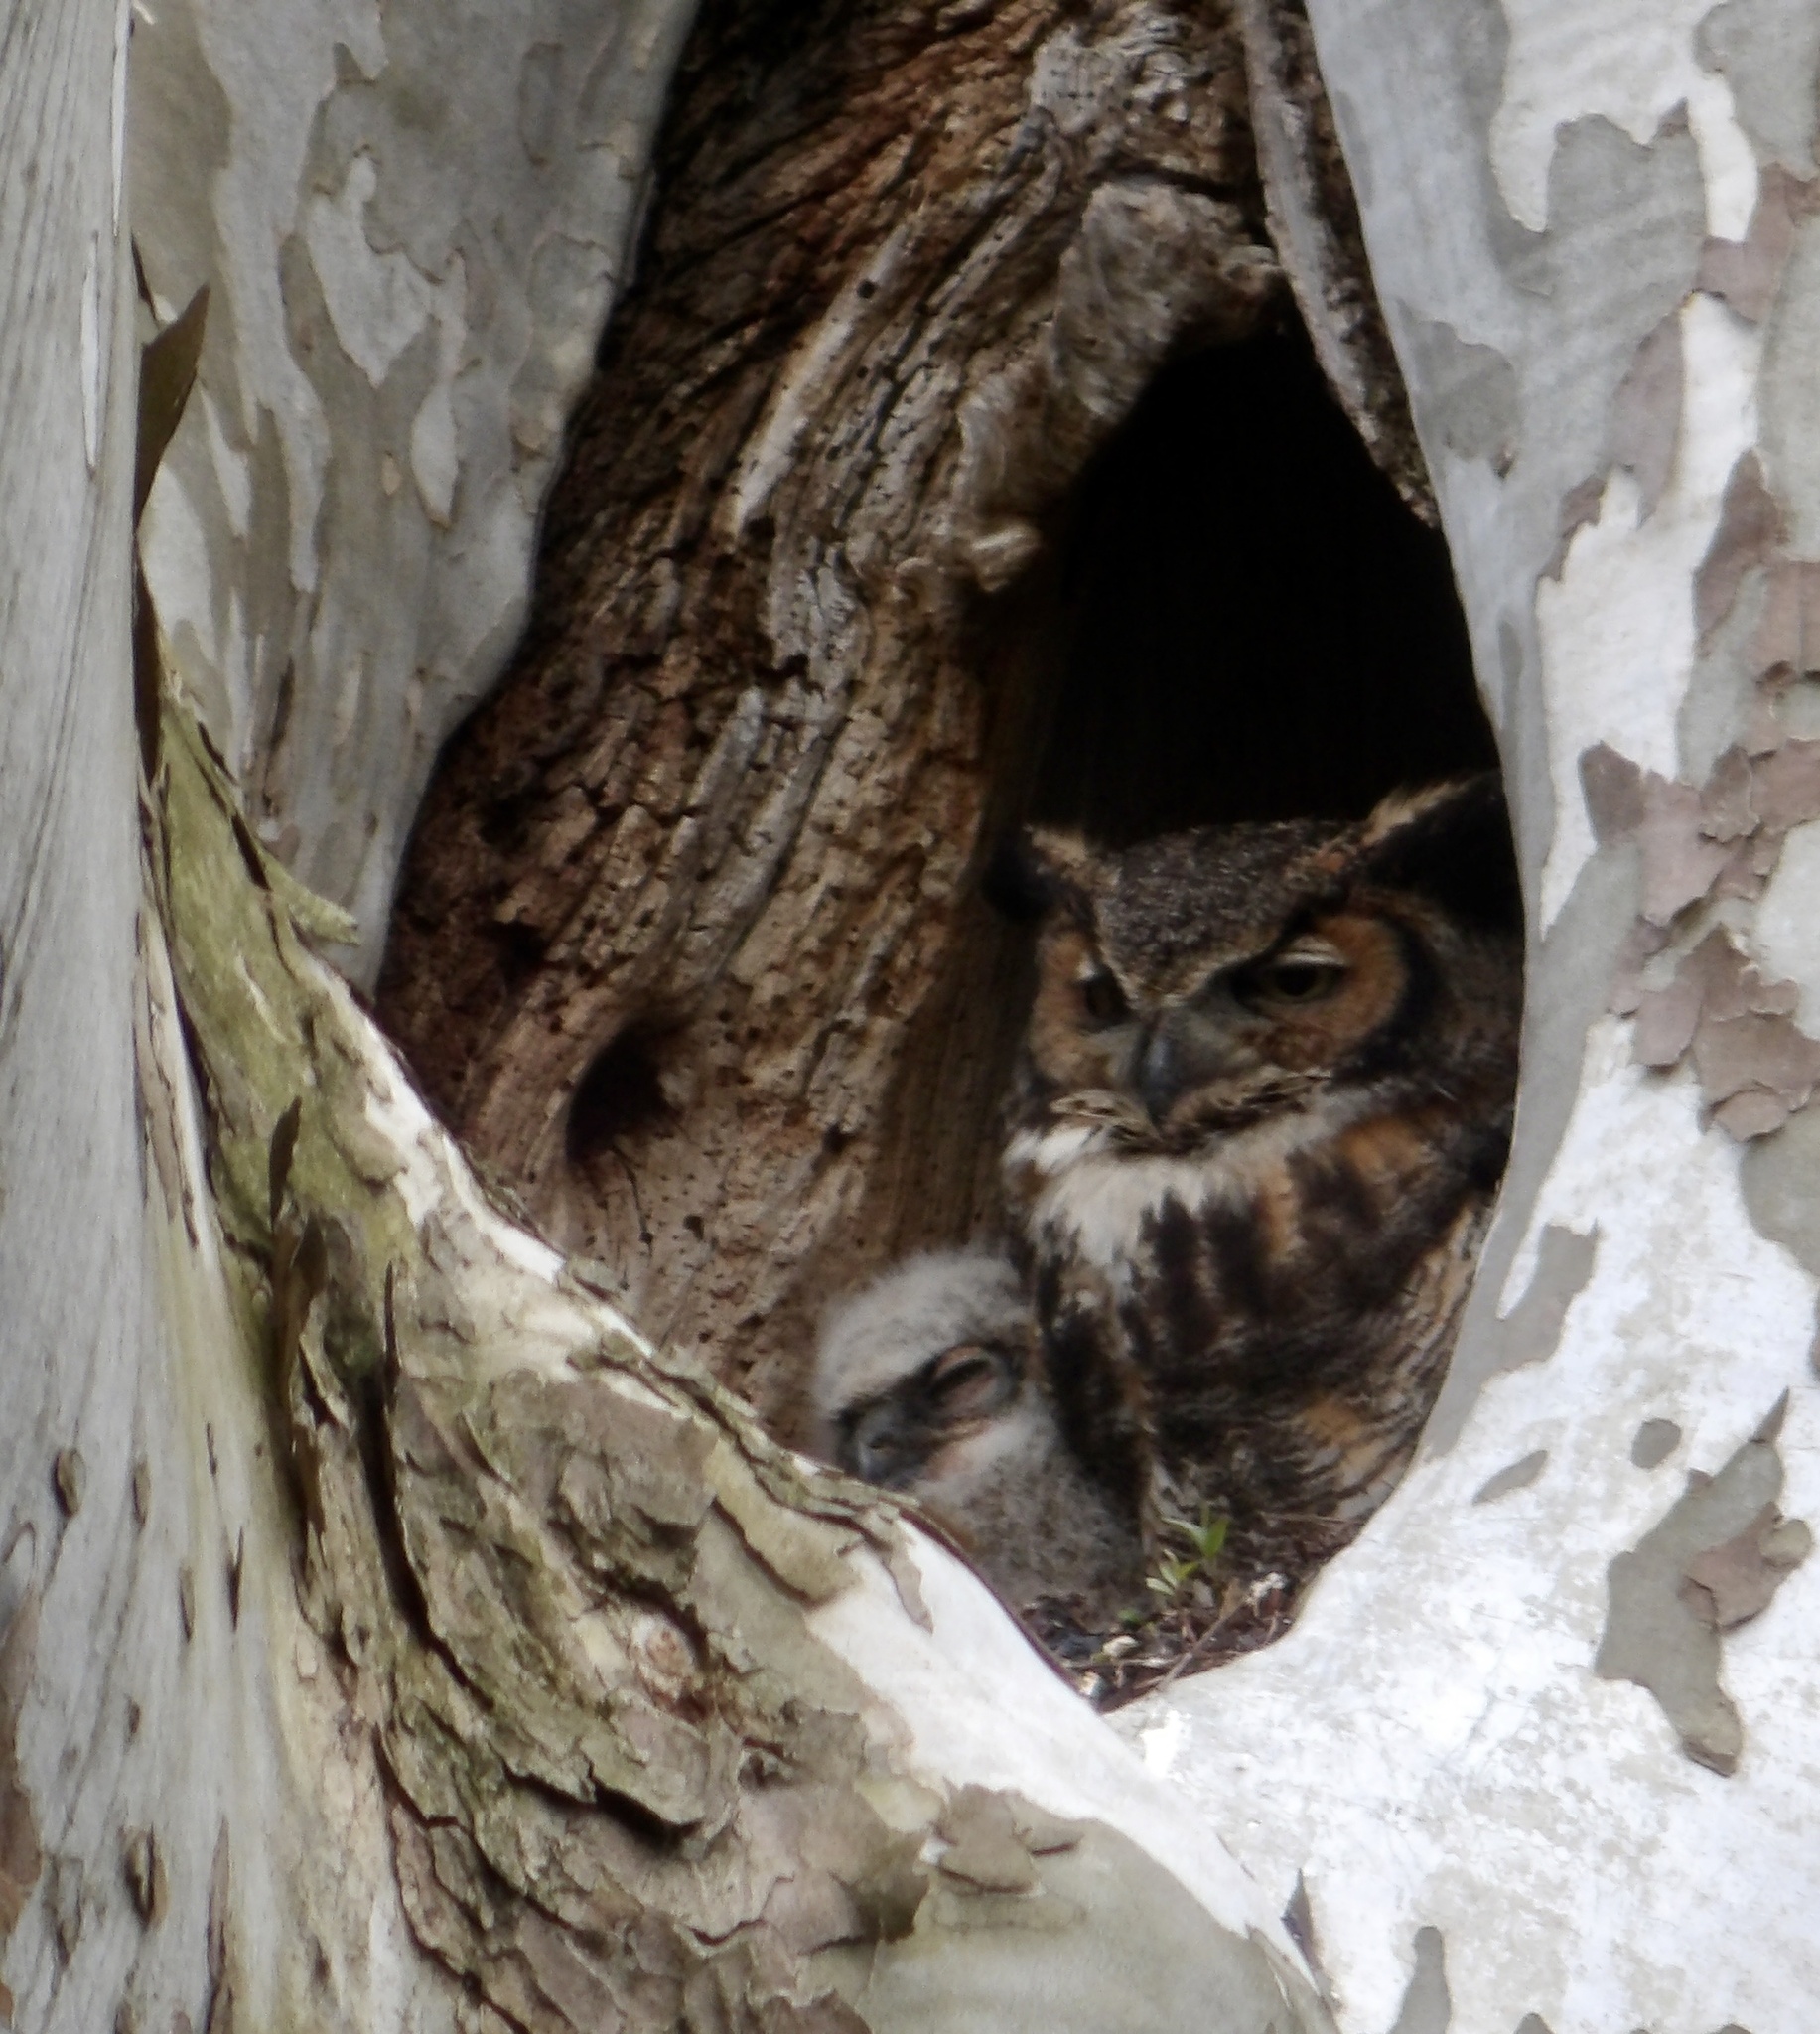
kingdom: Animalia
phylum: Chordata
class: Aves
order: Strigiformes
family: Strigidae
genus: Bubo
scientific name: Bubo virginianus
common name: Great horned owl
